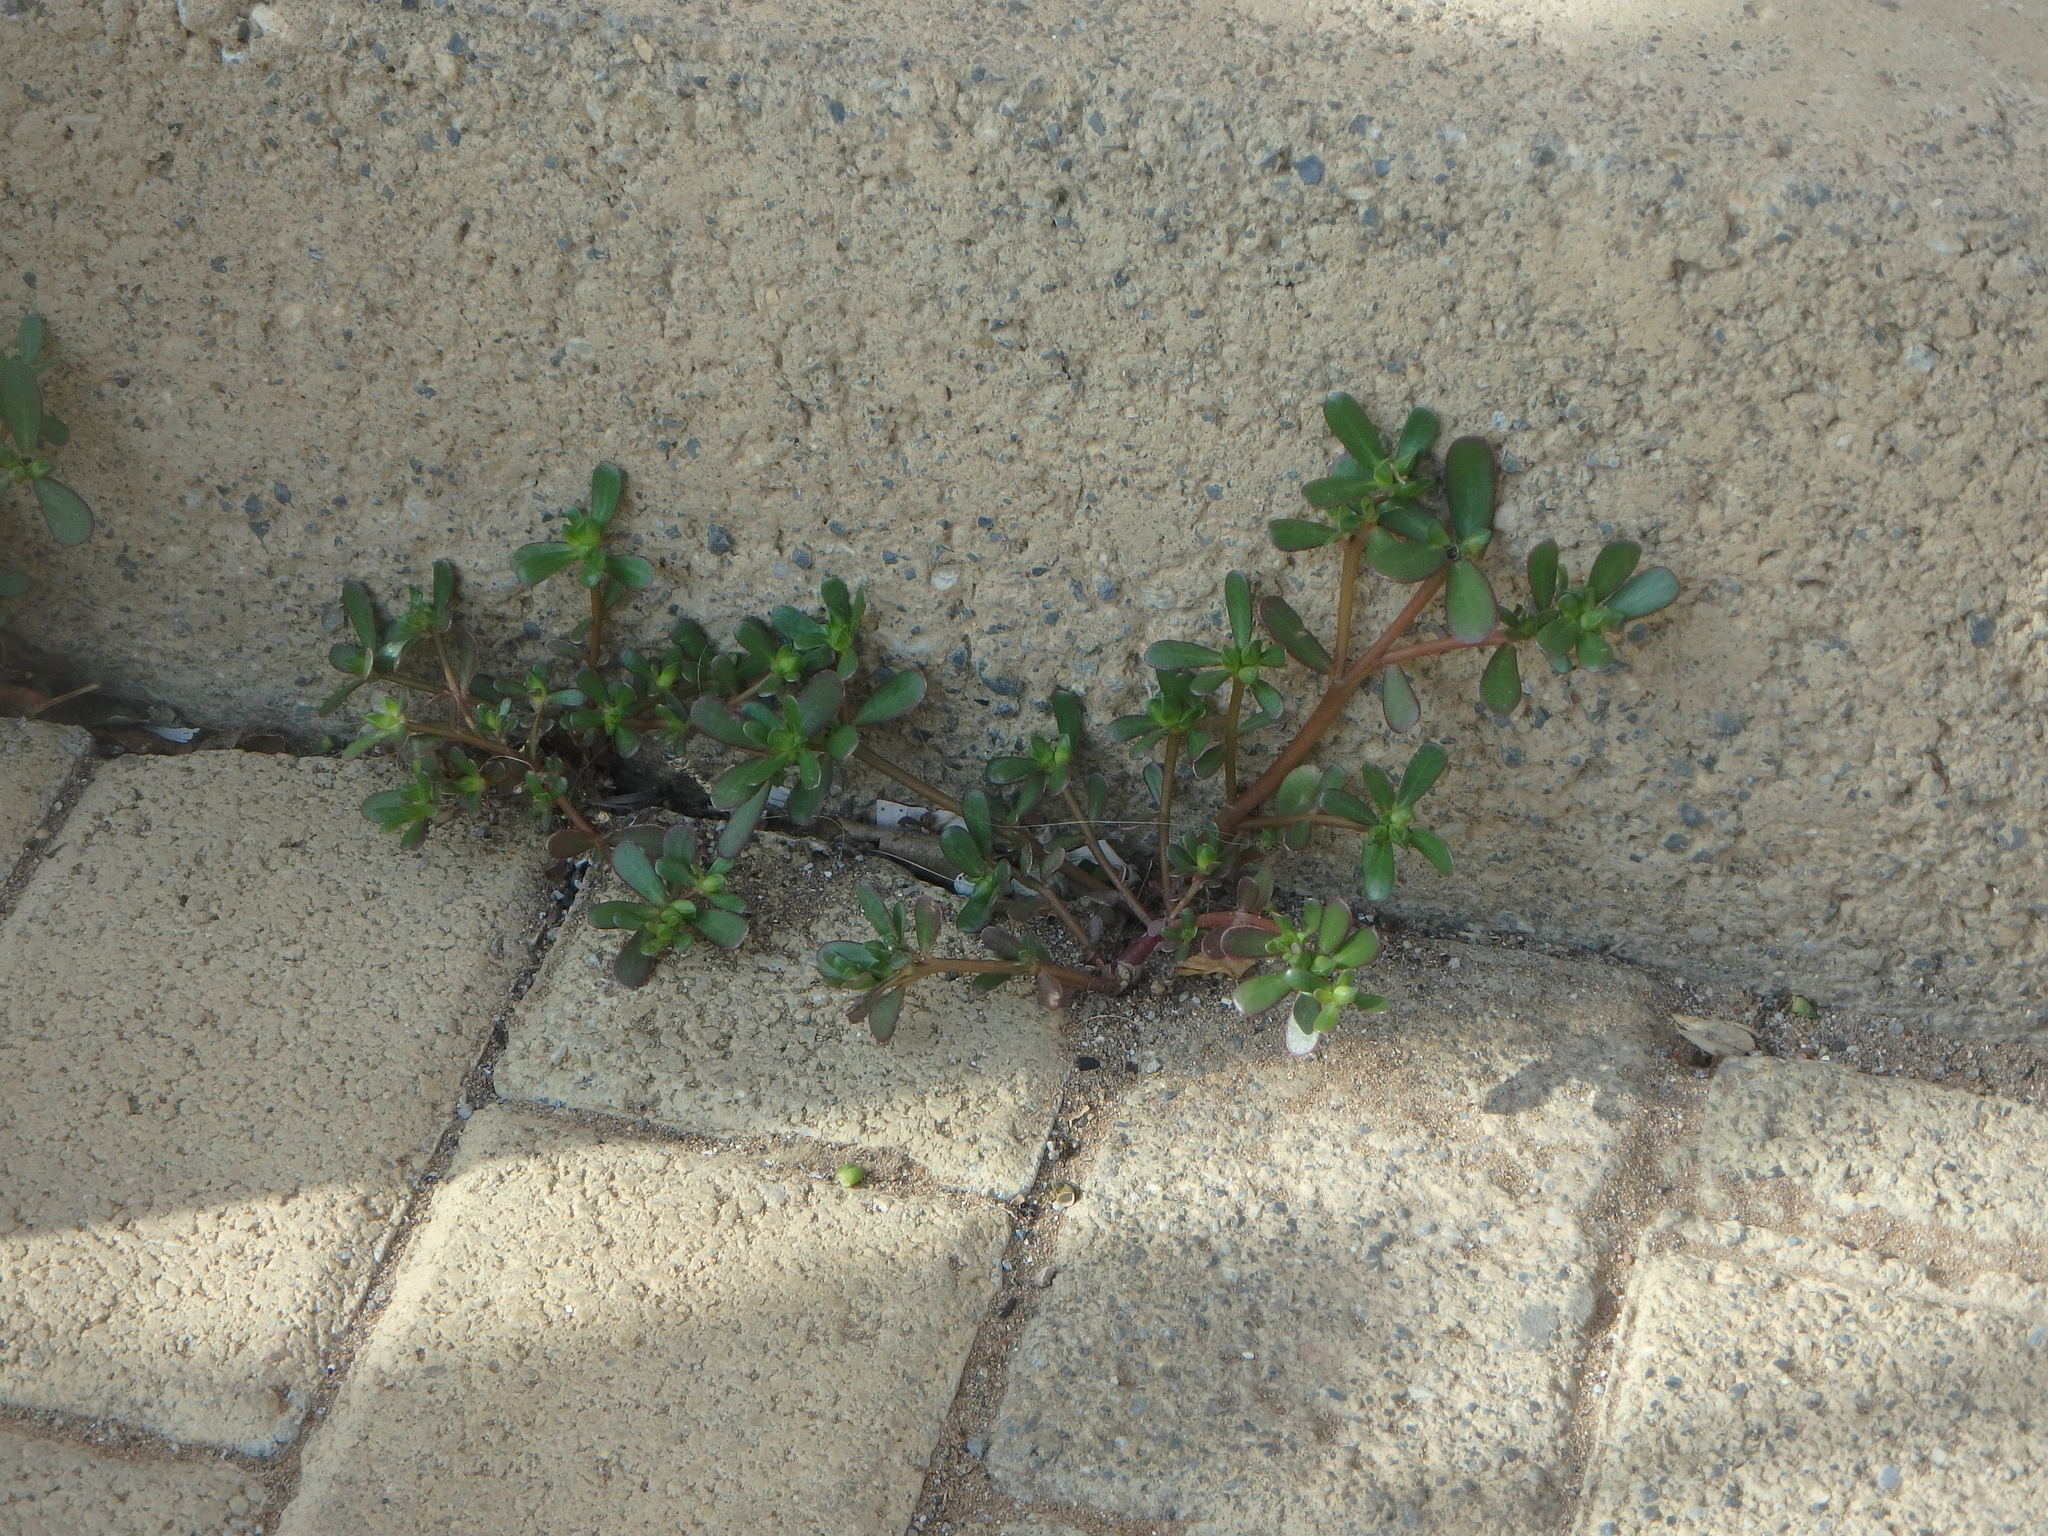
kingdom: Plantae
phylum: Tracheophyta
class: Magnoliopsida
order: Caryophyllales
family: Portulacaceae
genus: Portulaca
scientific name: Portulaca oleracea
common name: Common purslane
